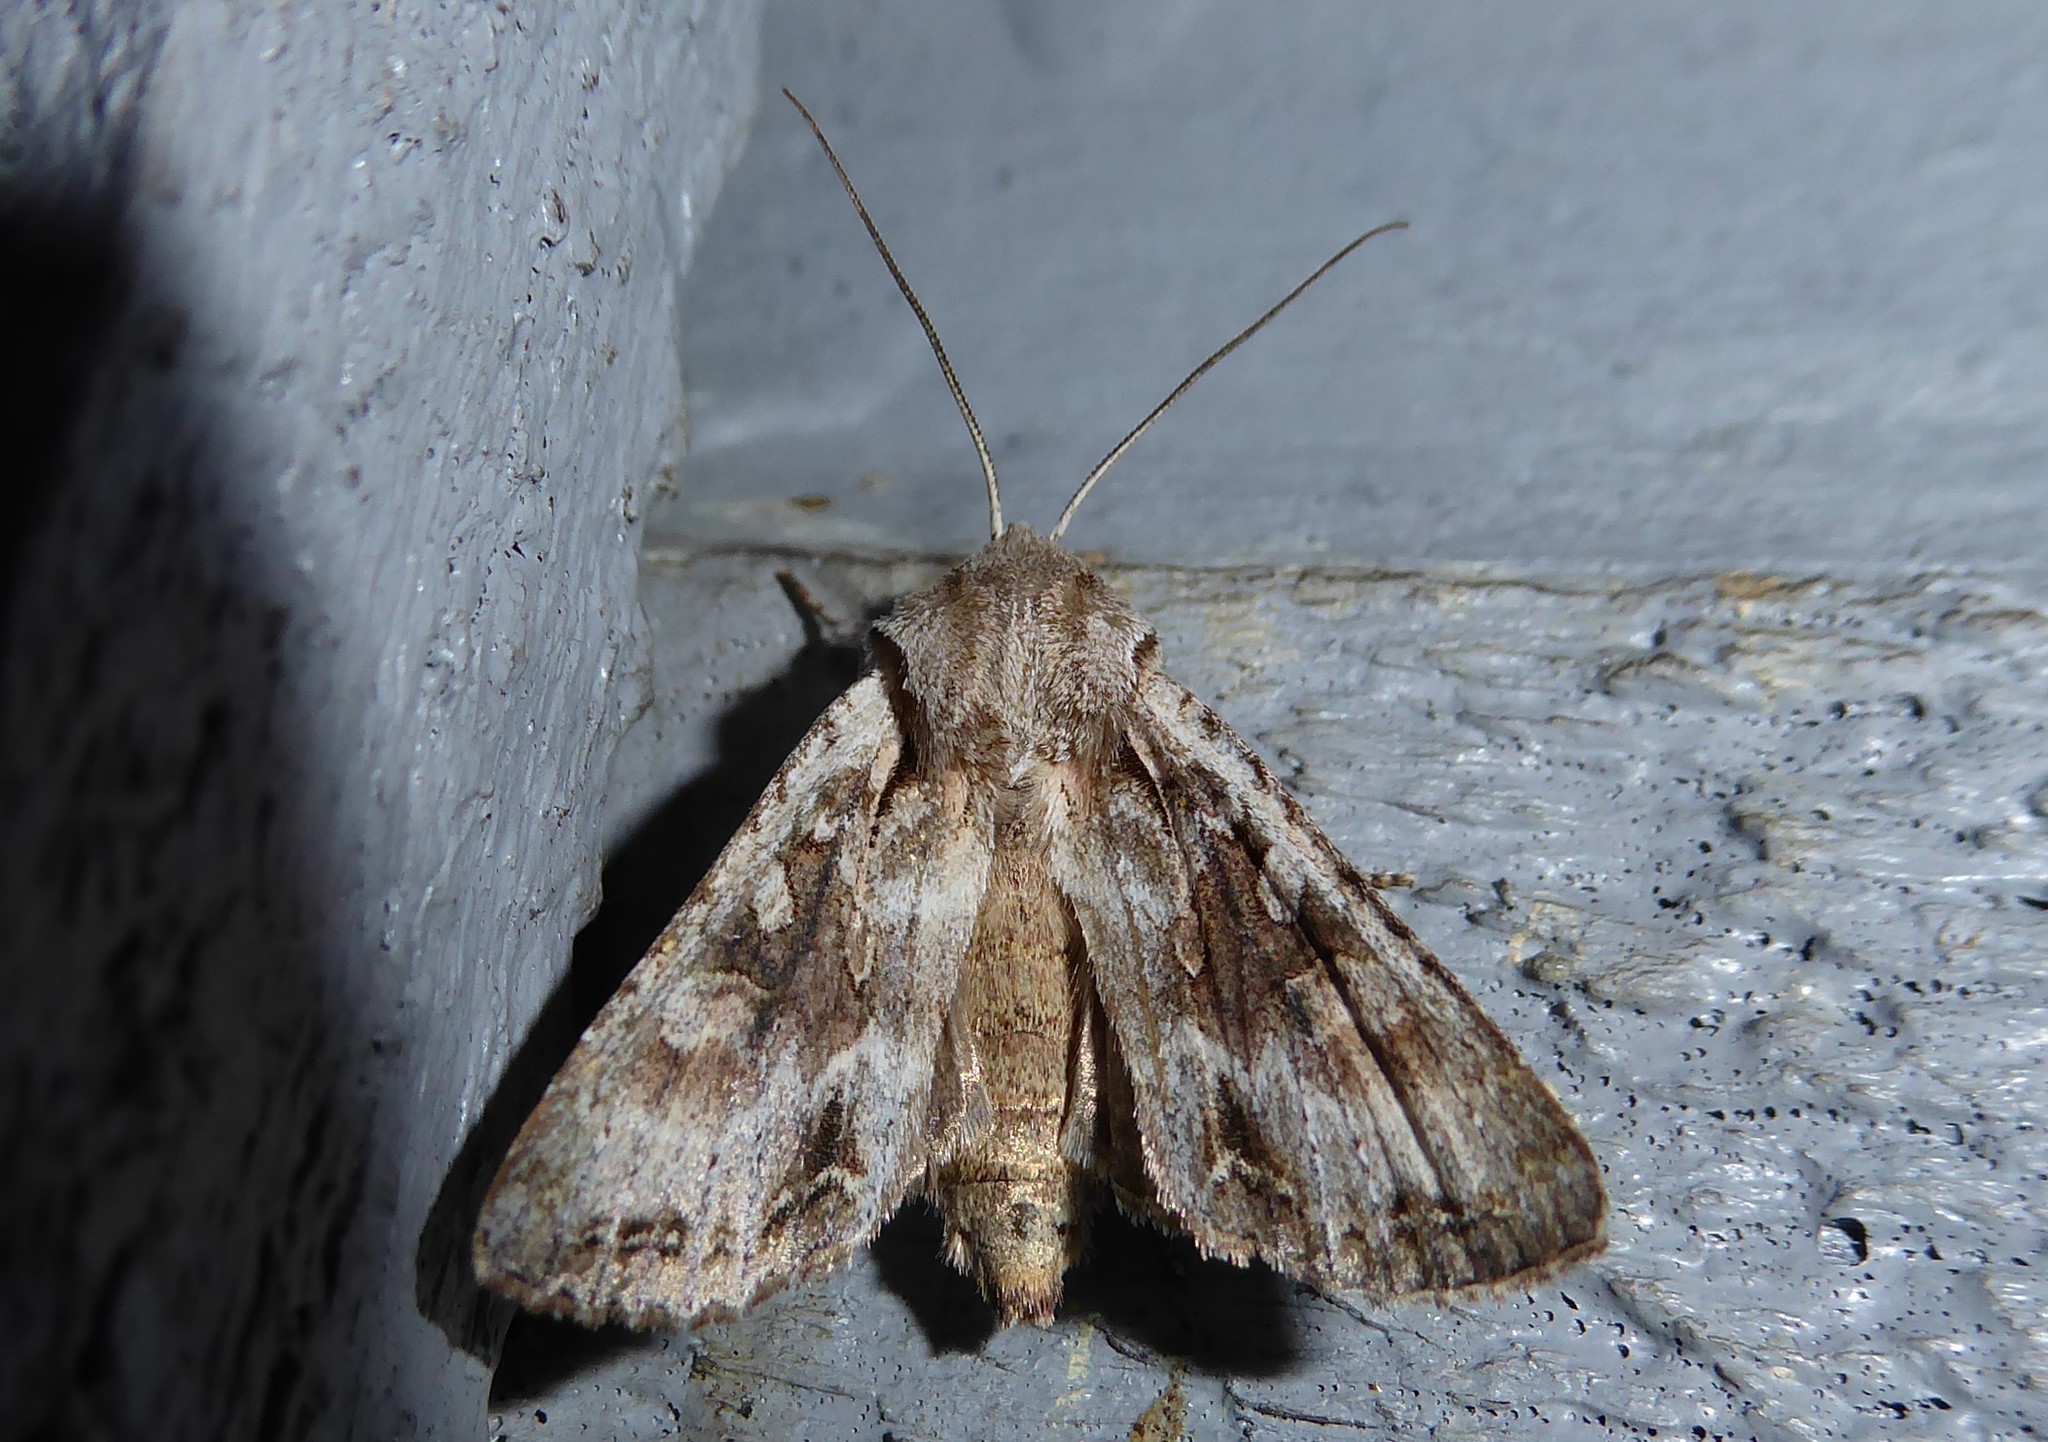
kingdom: Animalia
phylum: Arthropoda
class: Insecta
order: Lepidoptera
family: Noctuidae
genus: Ichneutica
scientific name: Ichneutica mutans
